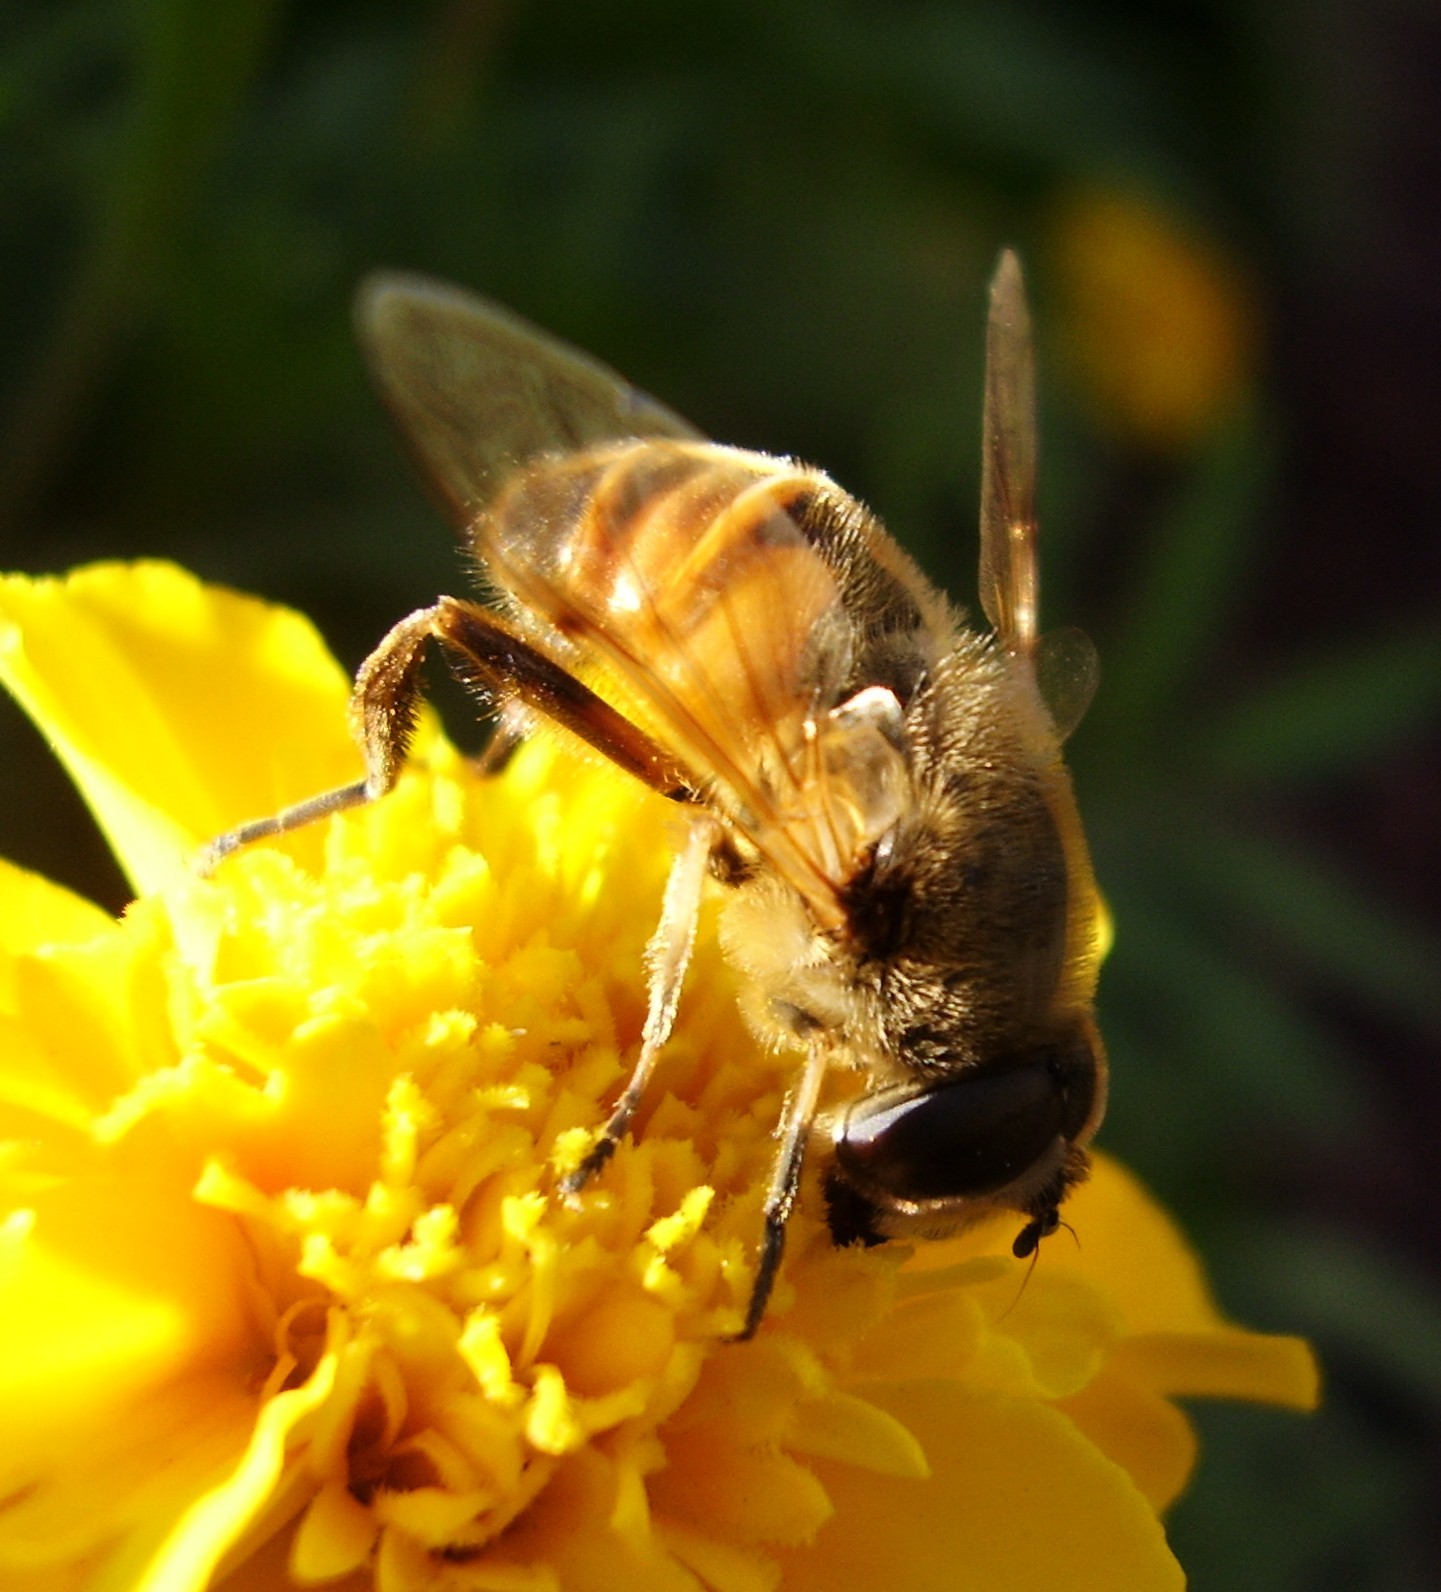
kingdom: Animalia
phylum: Arthropoda
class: Insecta
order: Diptera
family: Syrphidae
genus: Eristalis
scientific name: Eristalis tenax
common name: Drone fly
